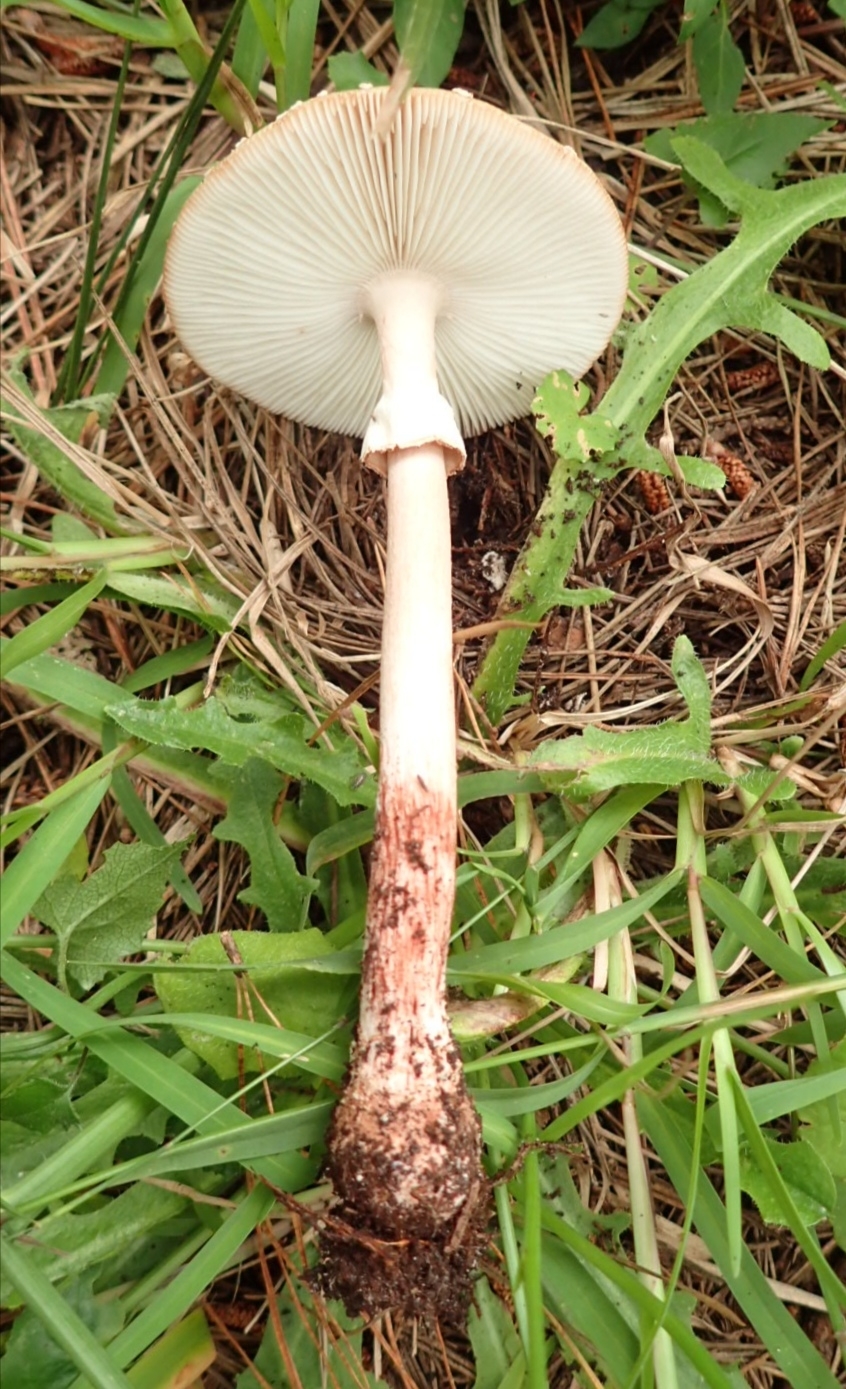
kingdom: Fungi
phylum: Basidiomycota
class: Agaricomycetes
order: Agaricales
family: Amanitaceae
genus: Amanita
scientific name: Amanita rubescens
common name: Blusher
